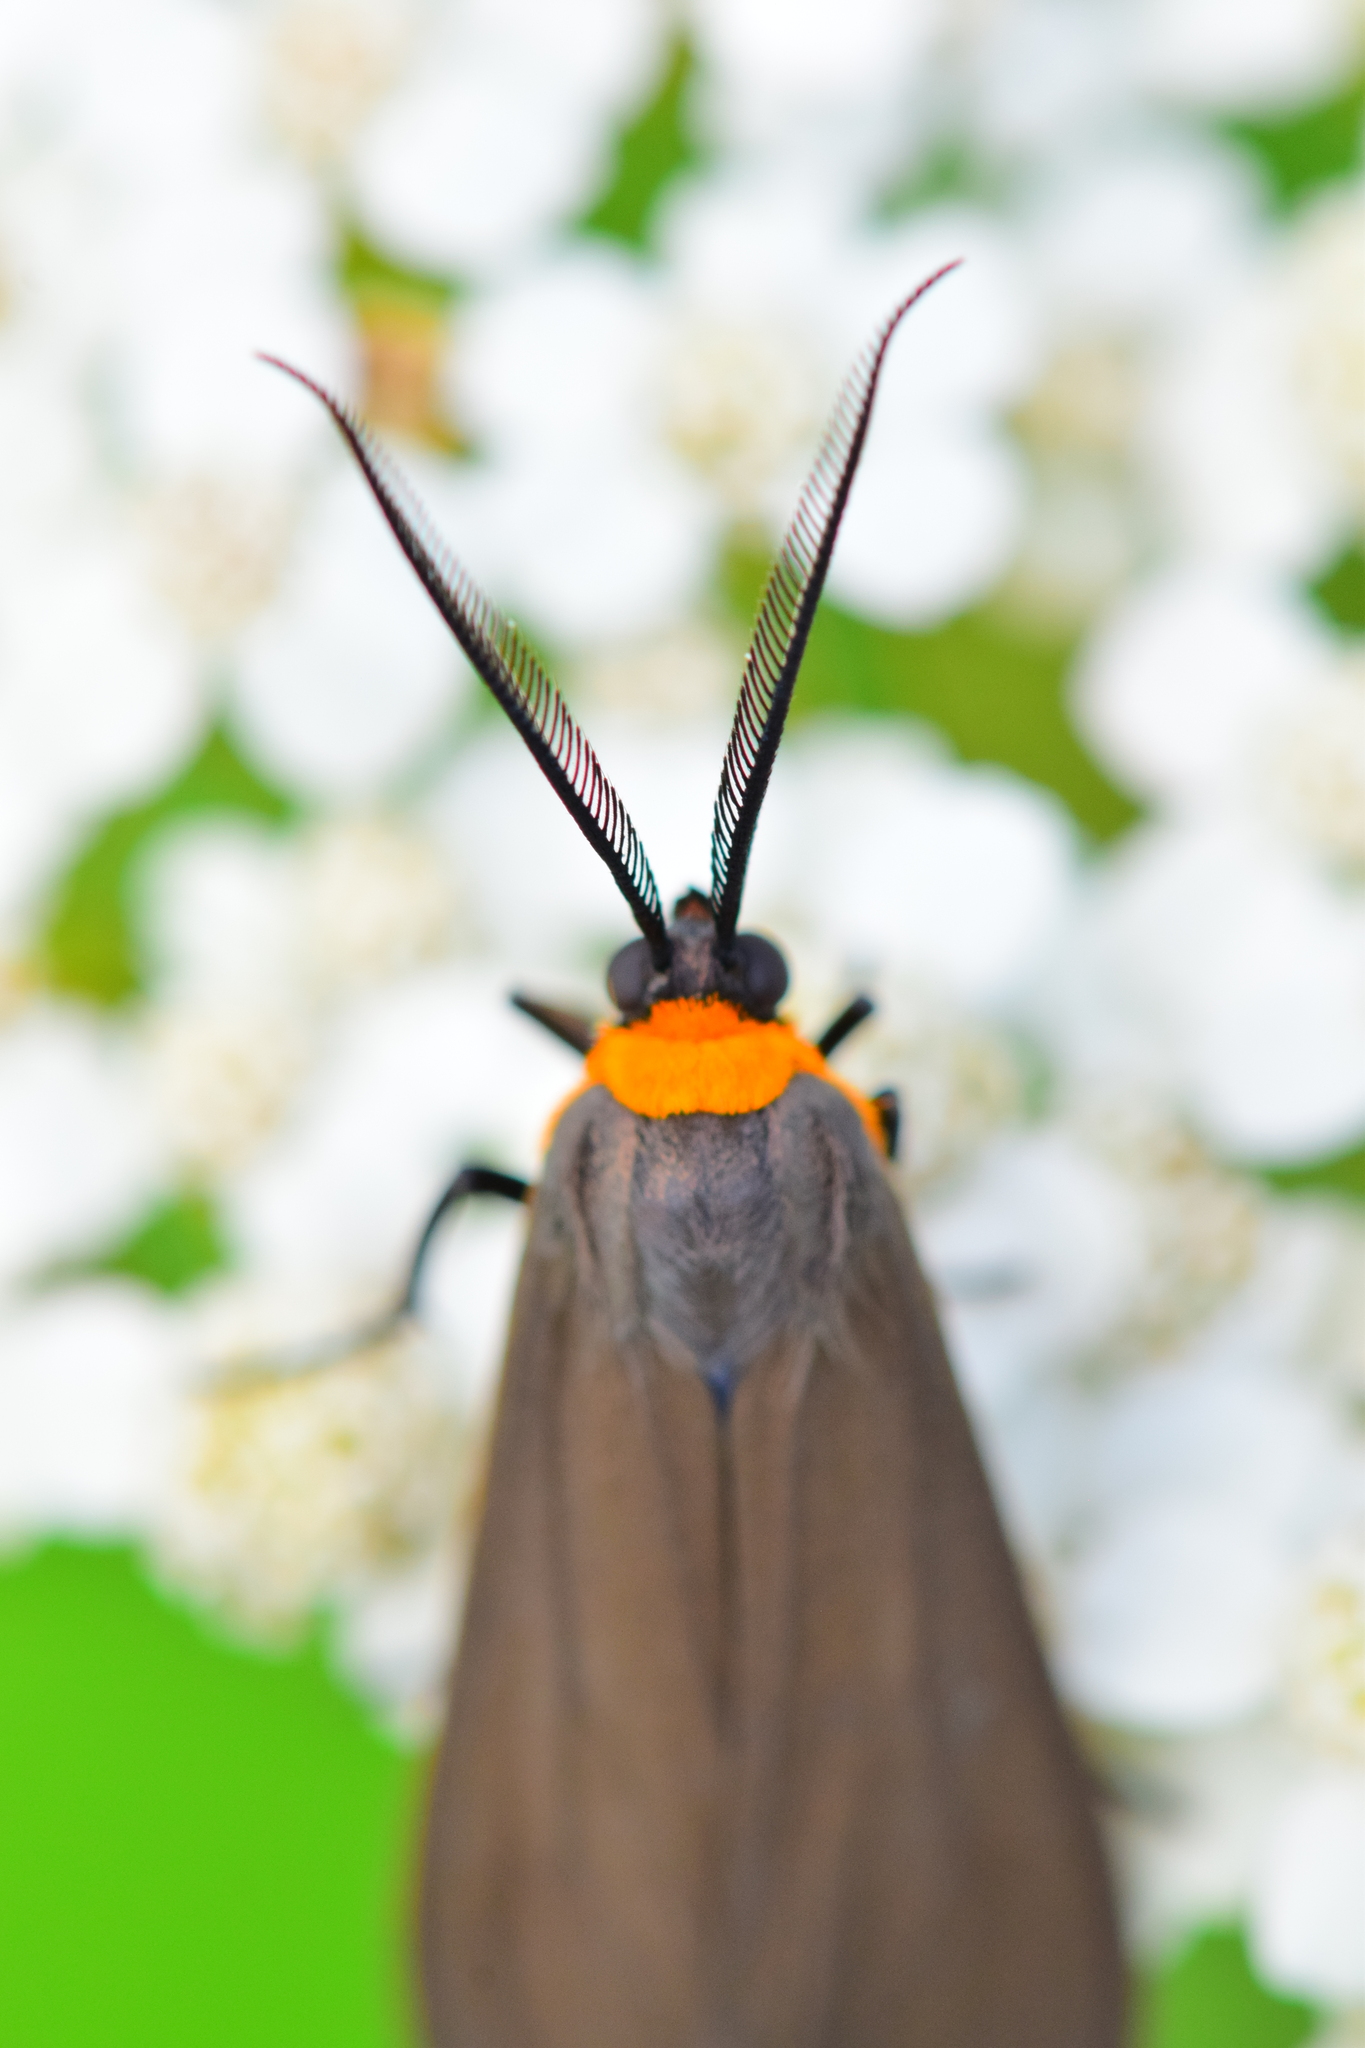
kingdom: Animalia
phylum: Arthropoda
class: Insecta
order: Lepidoptera
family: Erebidae
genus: Cisseps
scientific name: Cisseps fulvicollis
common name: Yellow-collared scape moth
